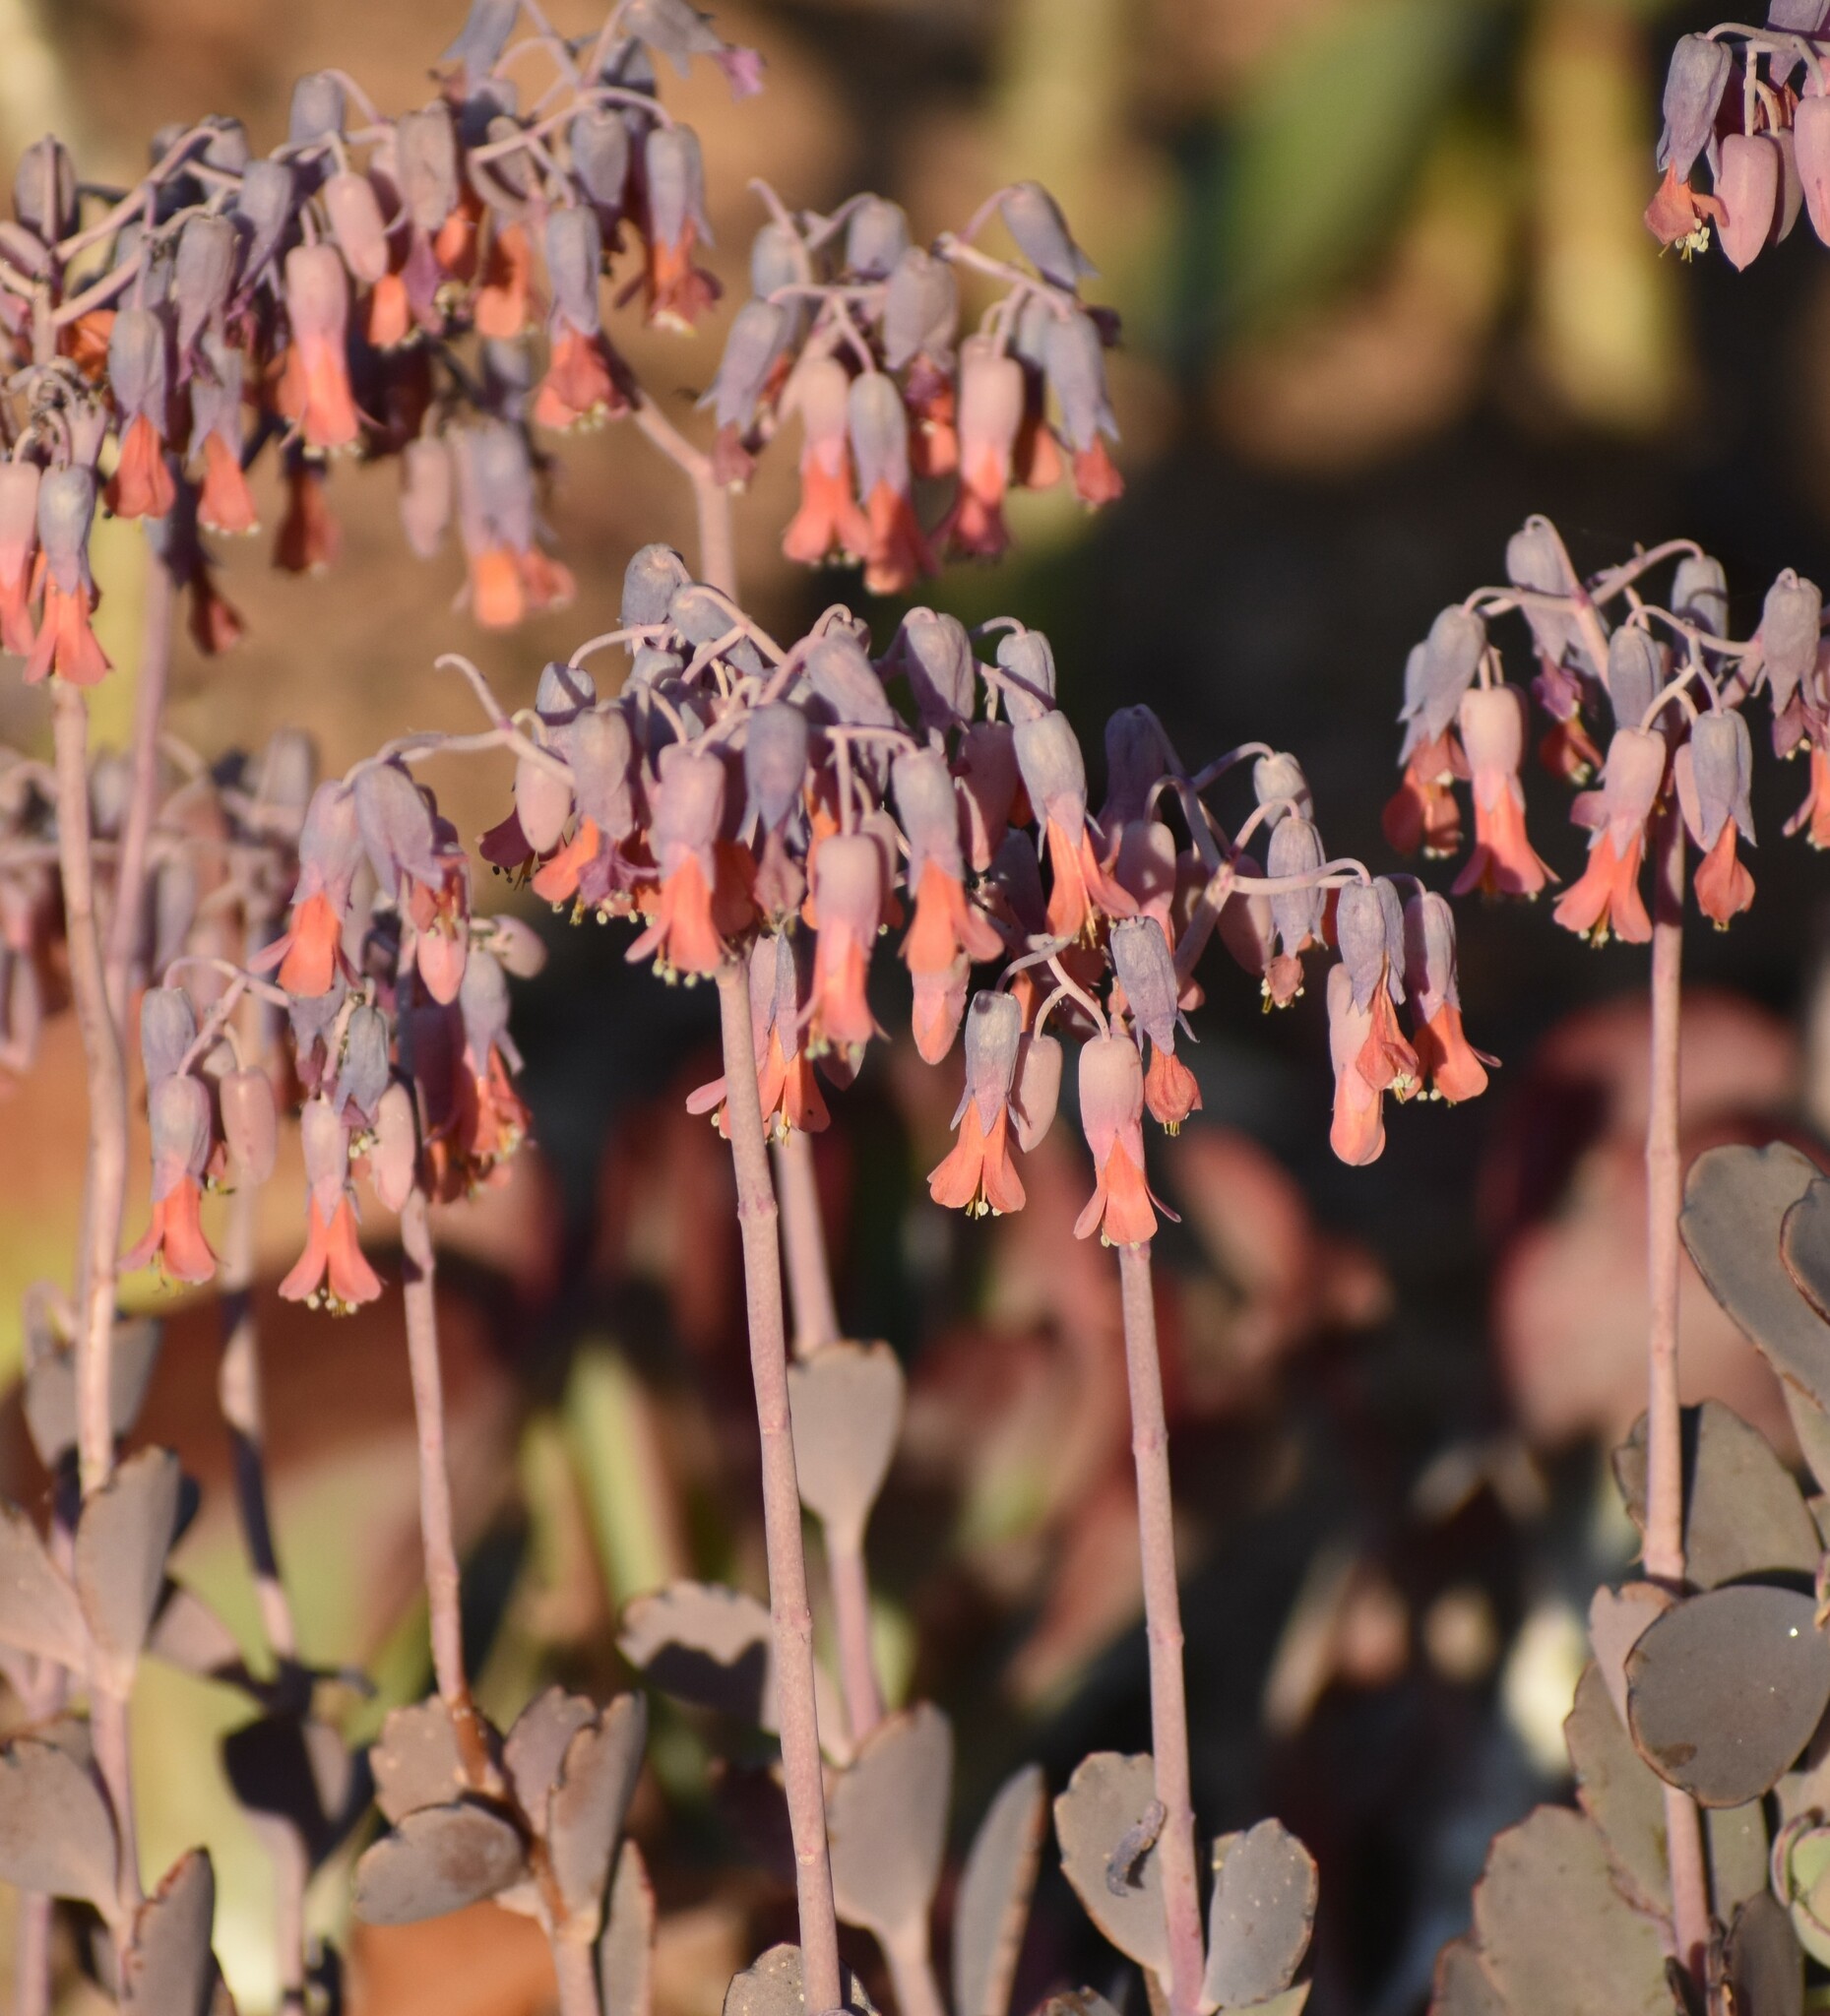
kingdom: Plantae
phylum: Tracheophyta
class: Magnoliopsida
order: Saxifragales
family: Crassulaceae
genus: Kalanchoe
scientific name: Kalanchoe fedtschenkoi
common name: Lavender scallops
